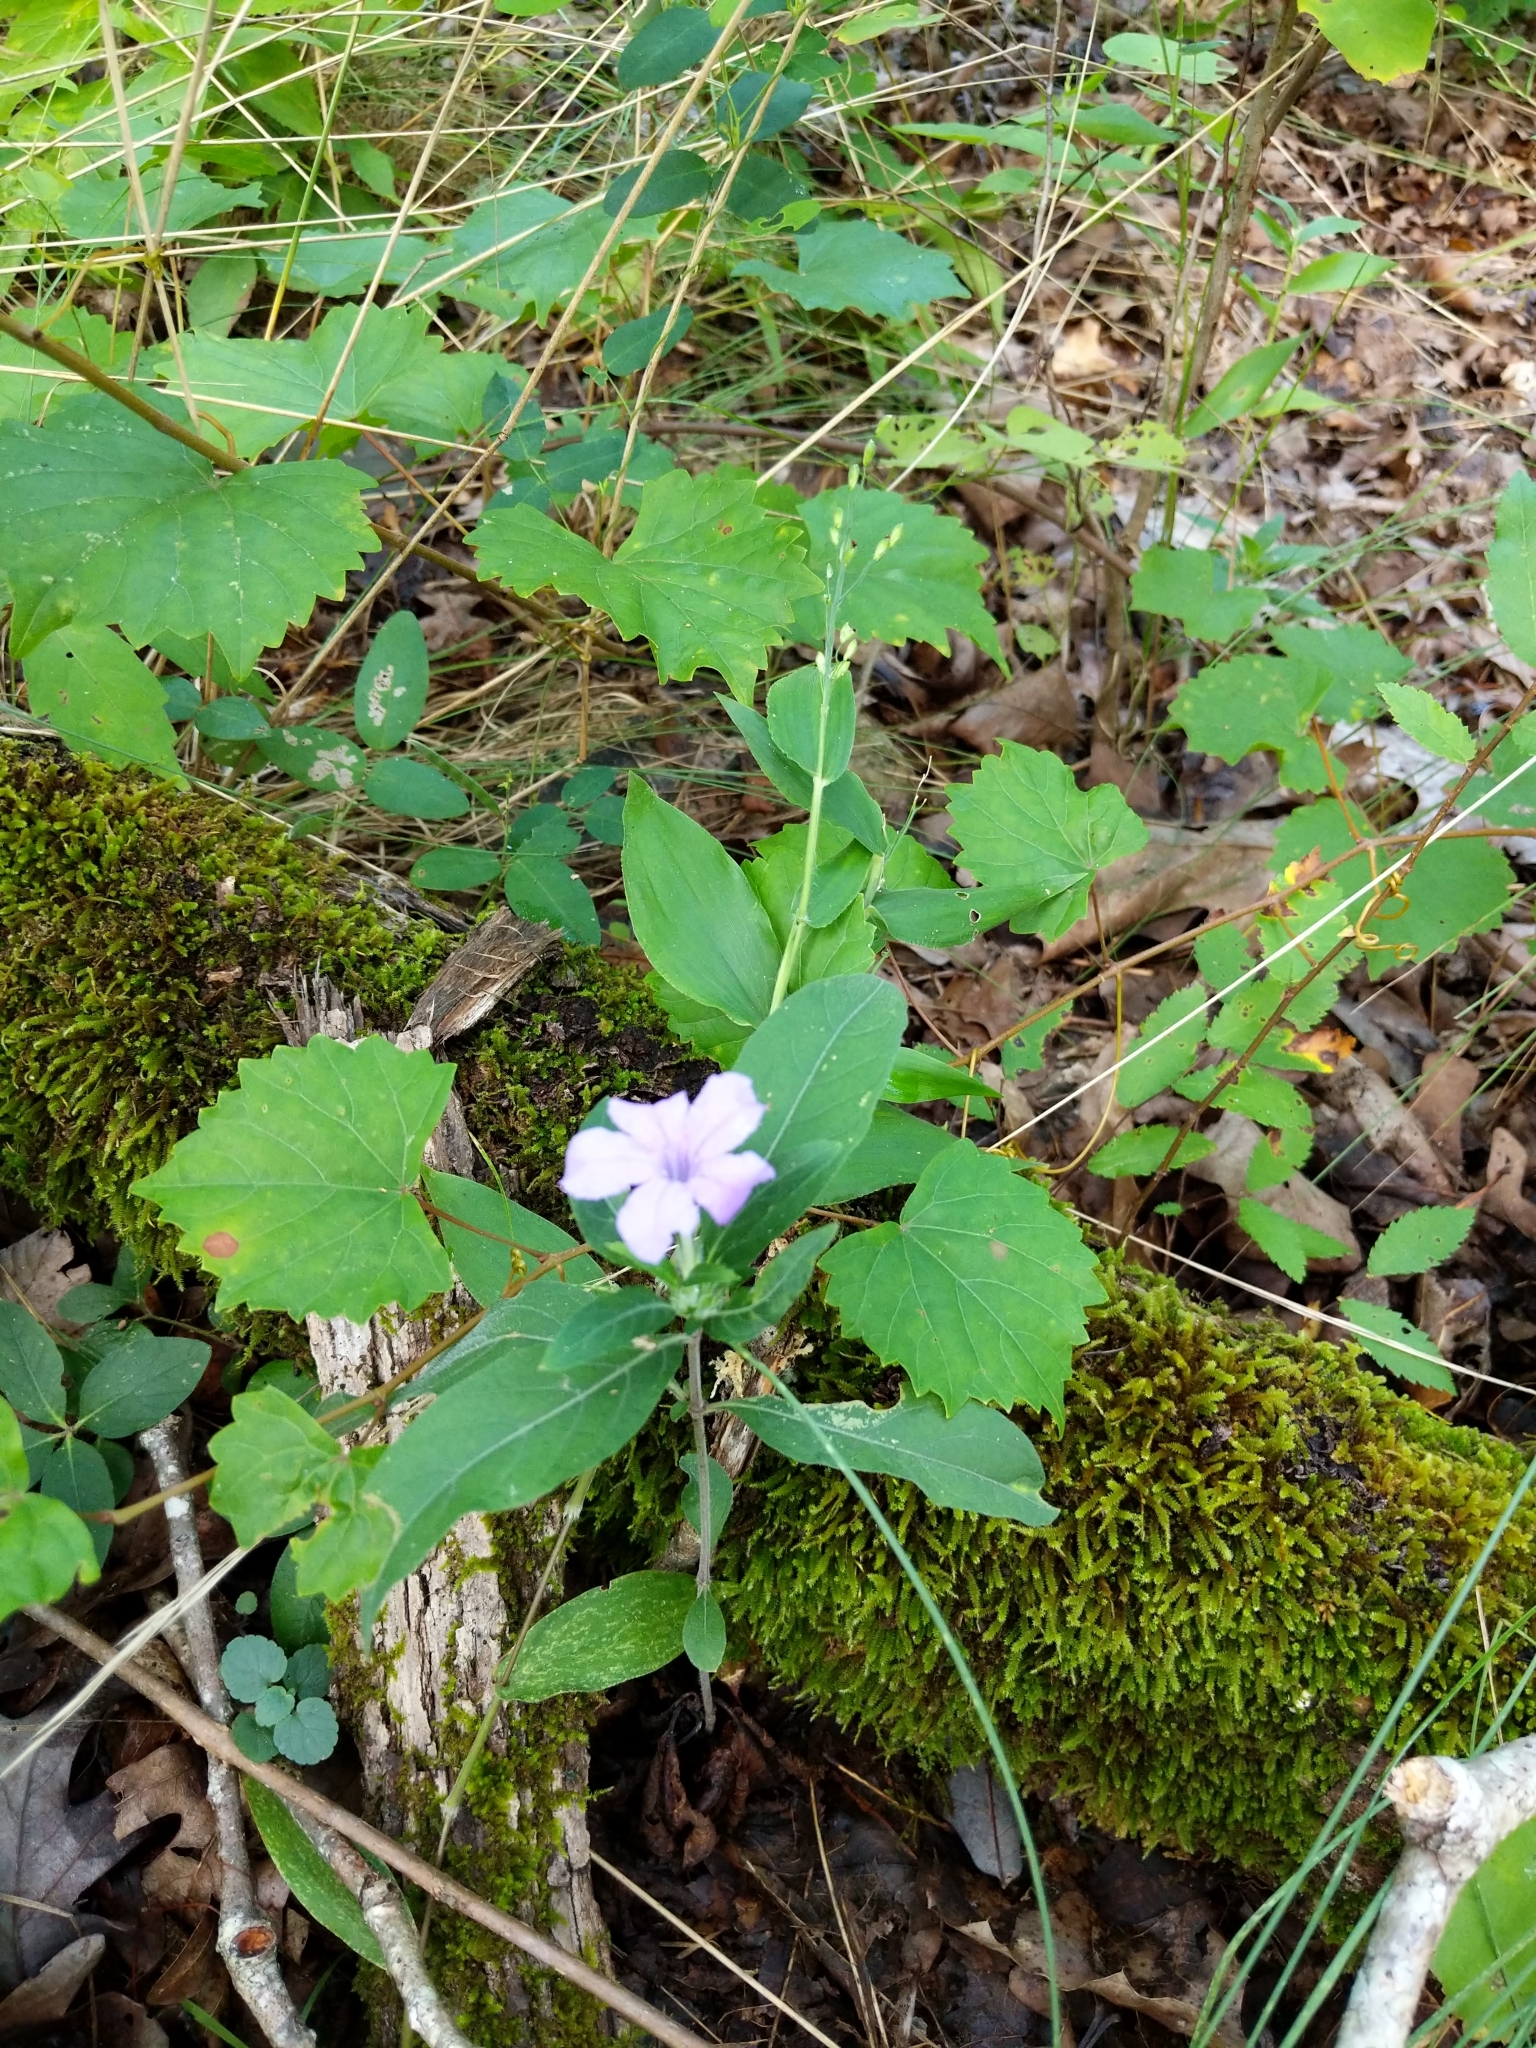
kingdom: Plantae
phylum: Tracheophyta
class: Magnoliopsida
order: Lamiales
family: Acanthaceae
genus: Ruellia
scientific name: Ruellia caroliniensis
